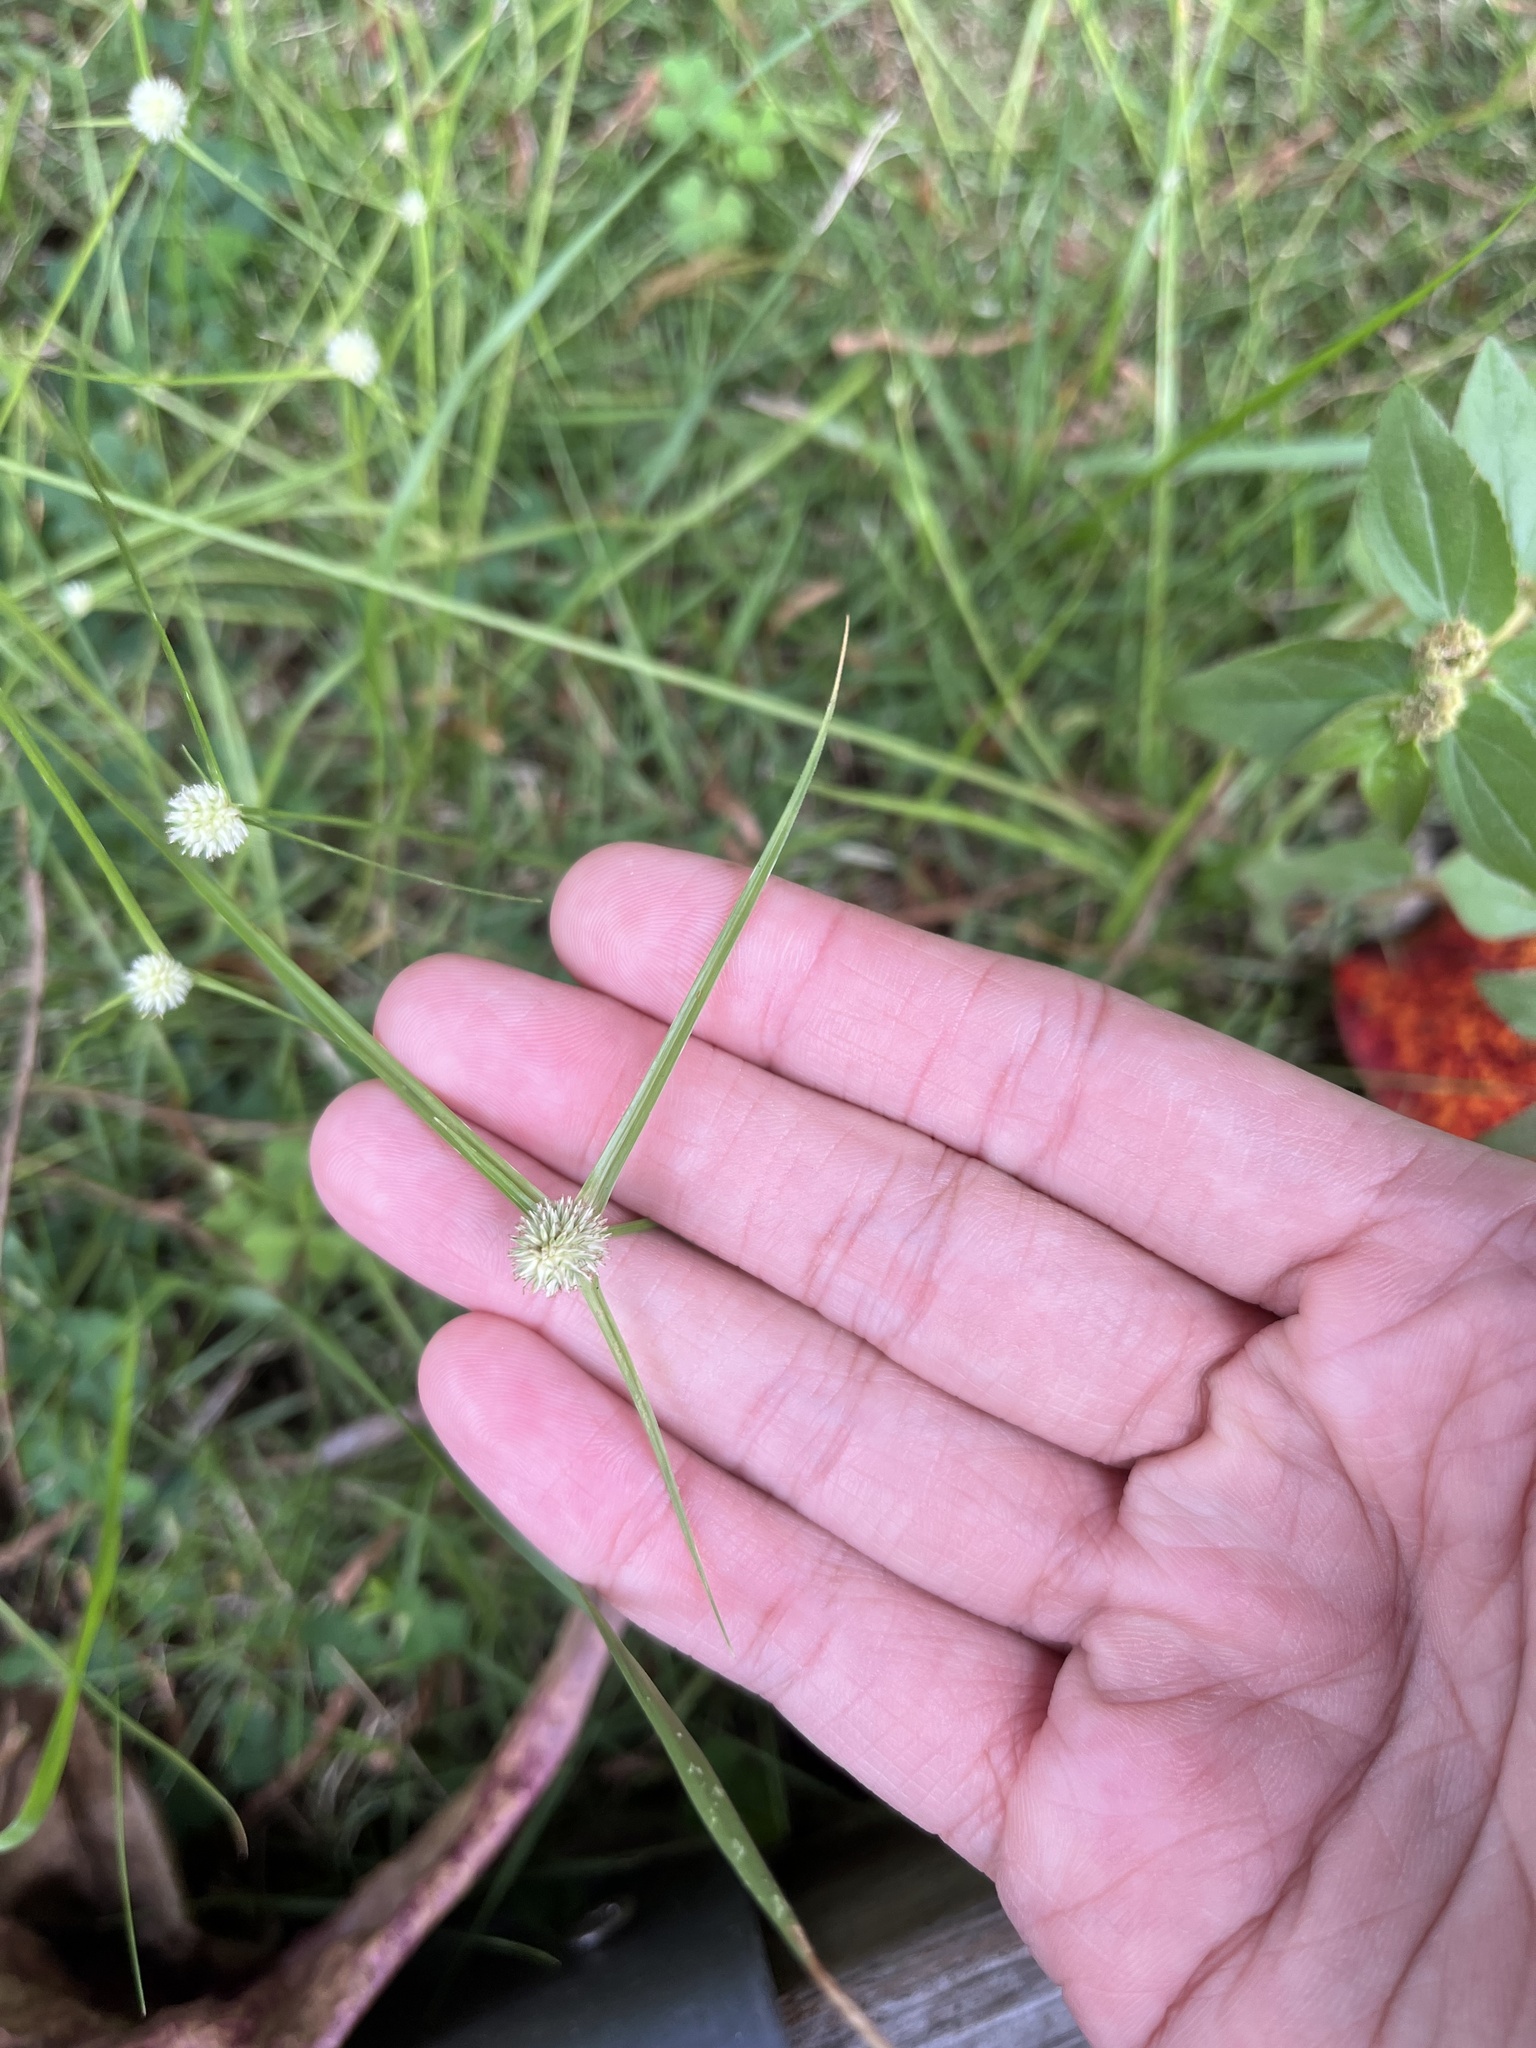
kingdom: Plantae
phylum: Tracheophyta
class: Liliopsida
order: Poales
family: Cyperaceae
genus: Cyperus
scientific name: Cyperus mindorensis
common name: Flatsedge
